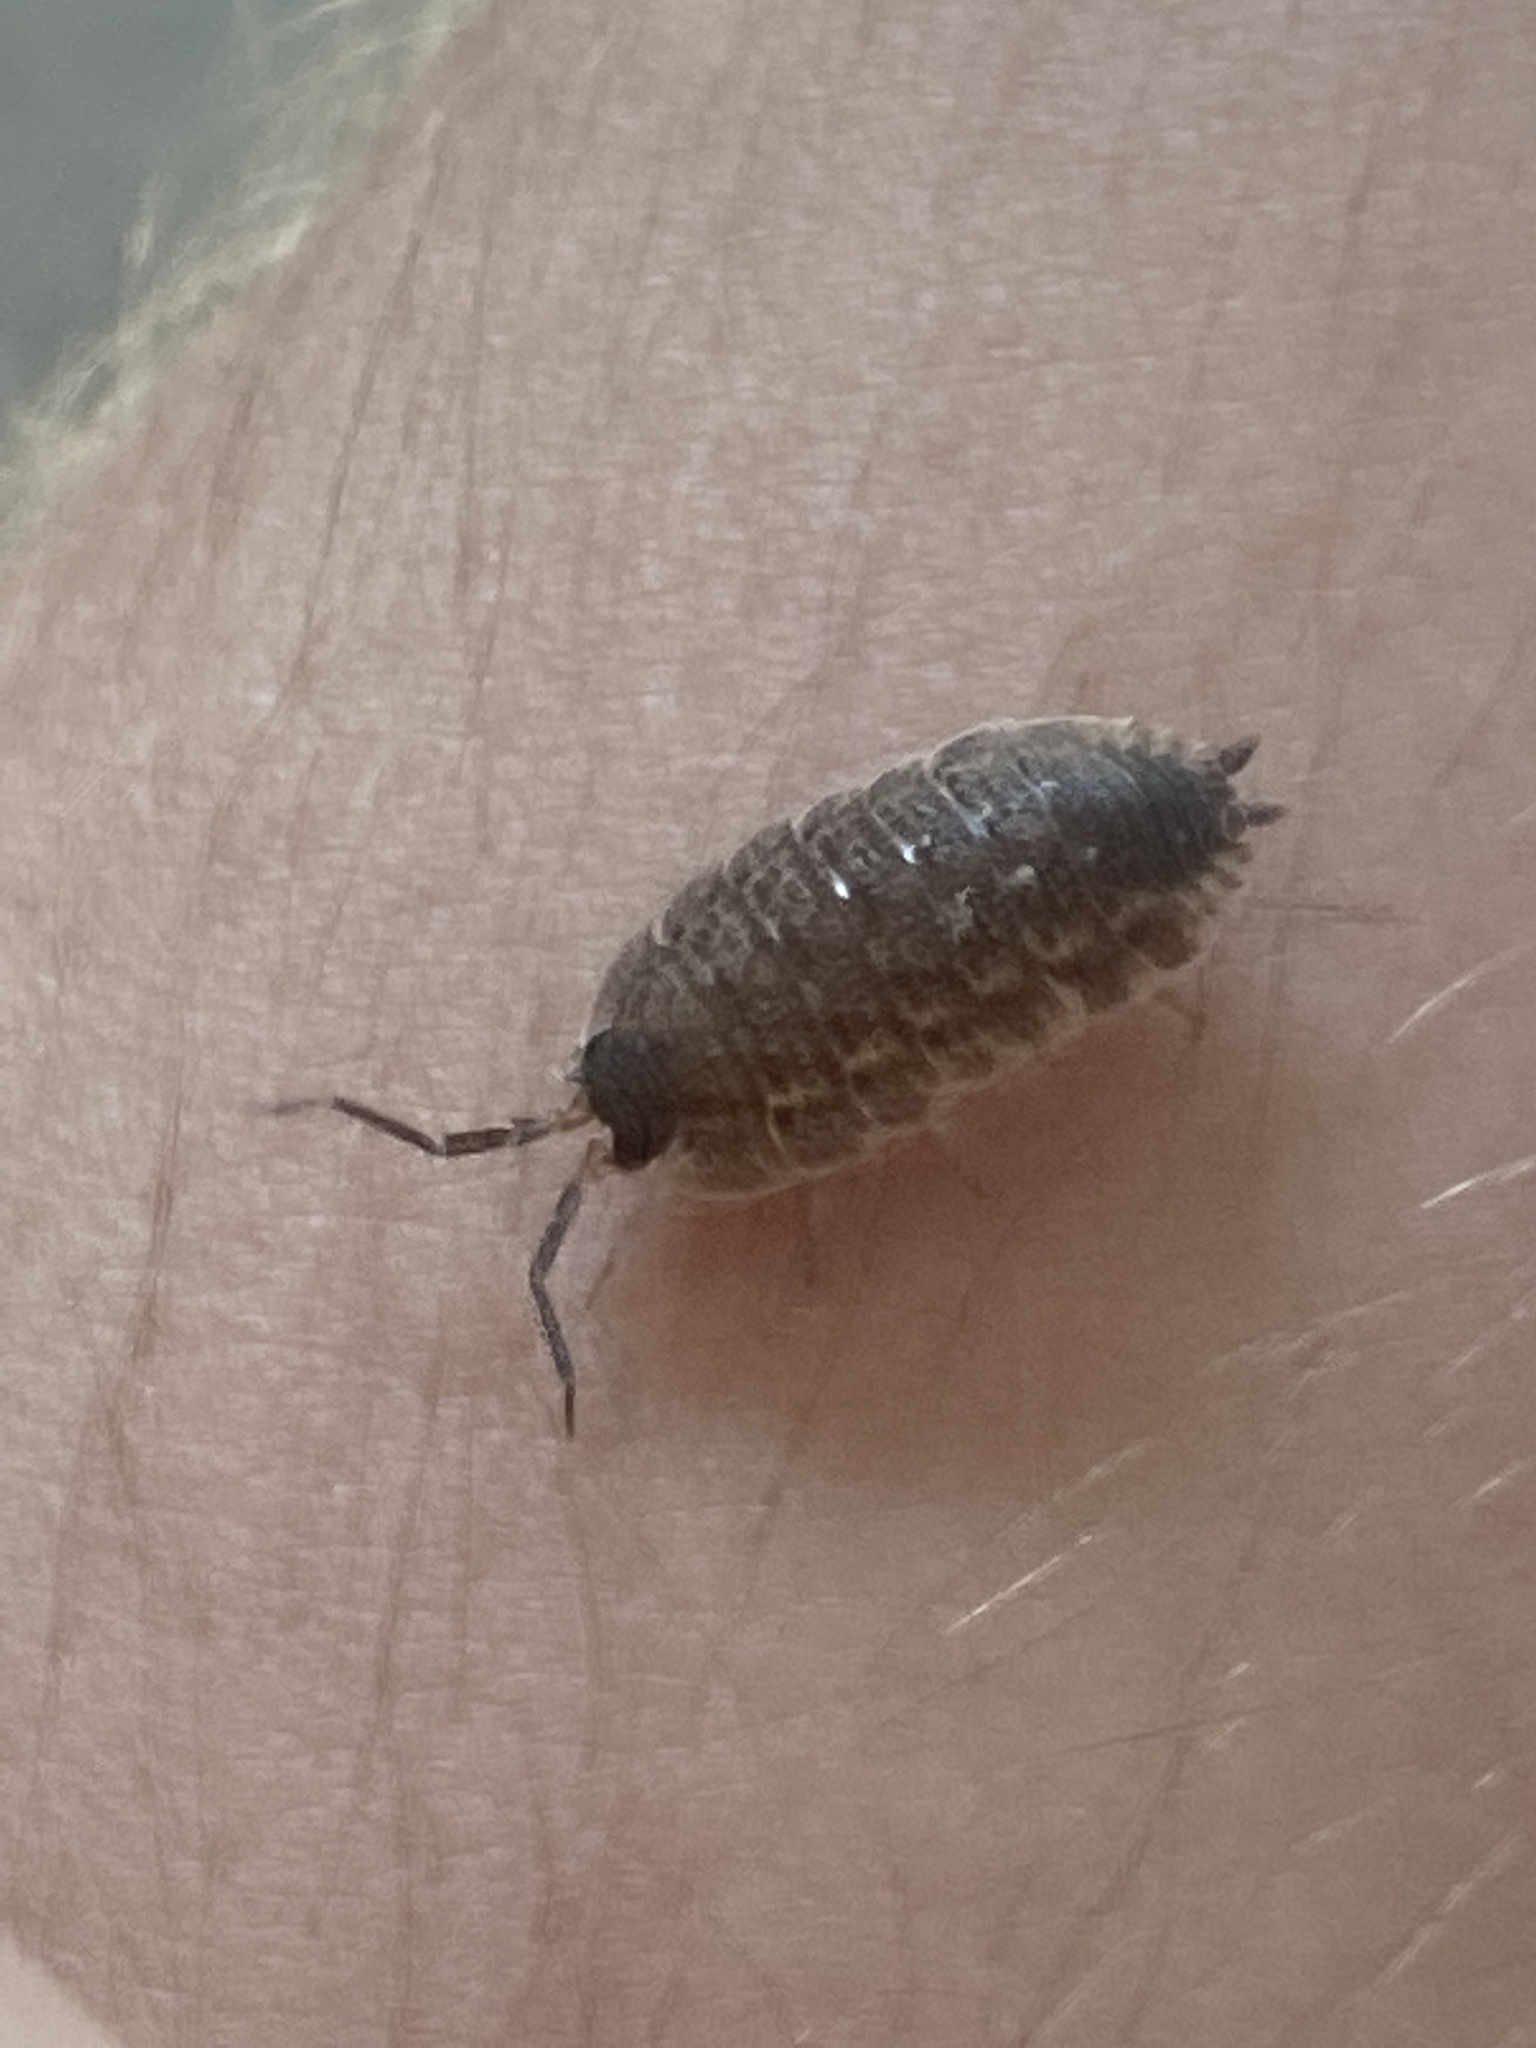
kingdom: Animalia
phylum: Arthropoda
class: Malacostraca
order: Isopoda
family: Porcellionidae
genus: Porcellio
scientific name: Porcellio spinicornis
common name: Painted woodlouse
